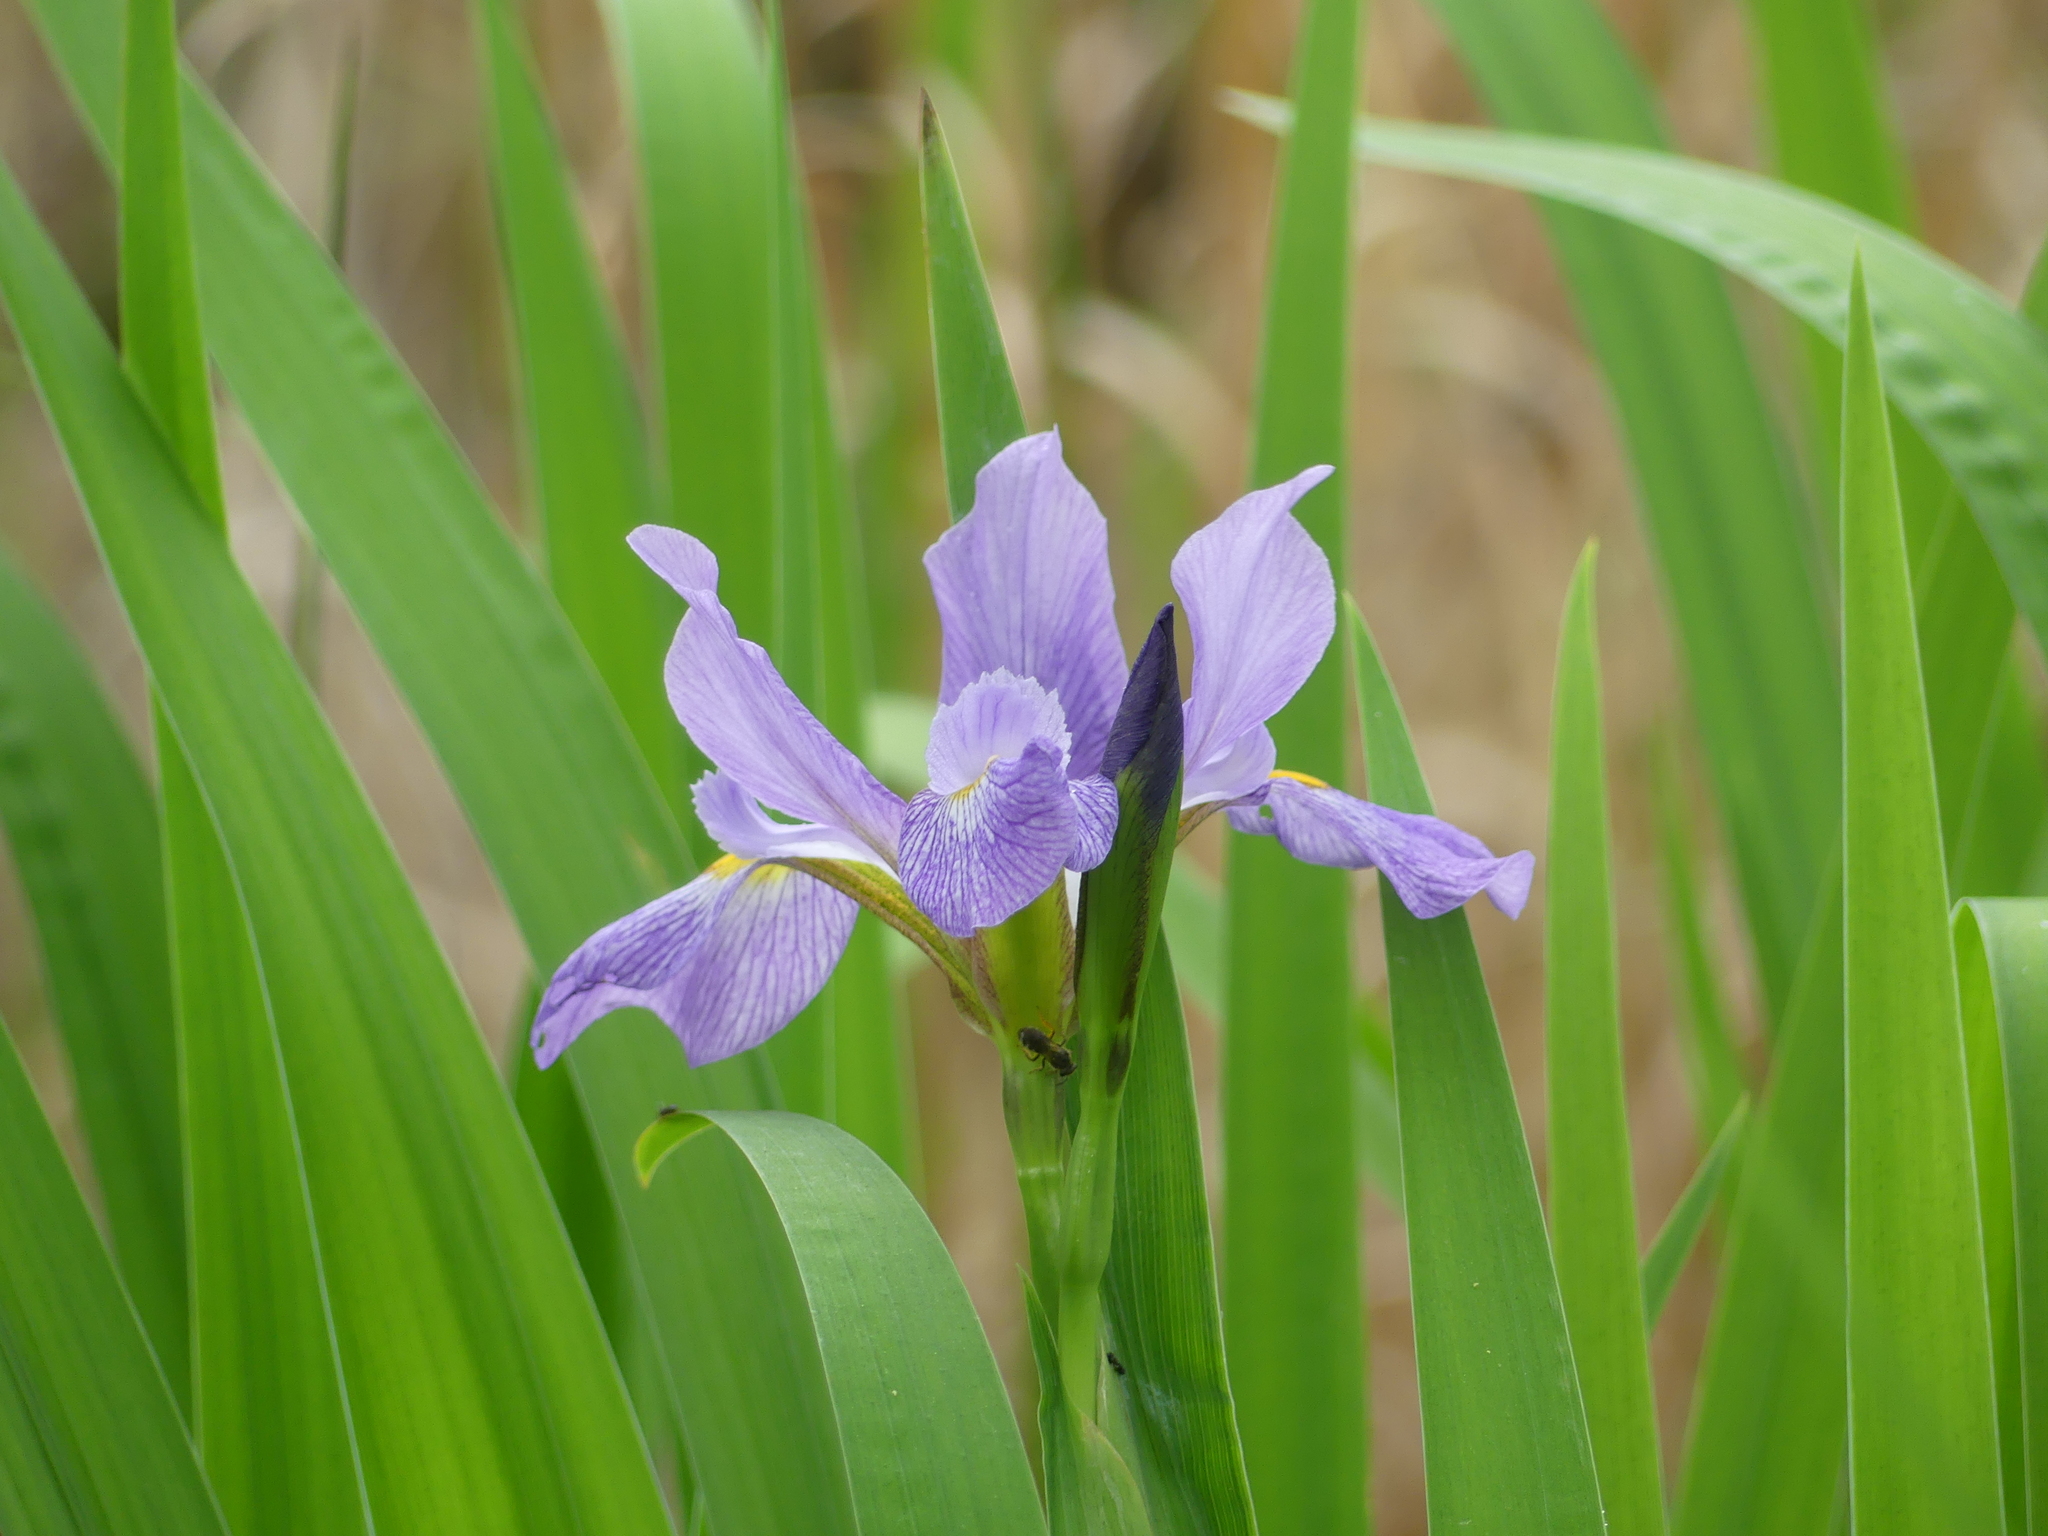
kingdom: Plantae
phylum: Tracheophyta
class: Liliopsida
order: Asparagales
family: Iridaceae
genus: Iris
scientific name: Iris virginica
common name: Southern blue flag
